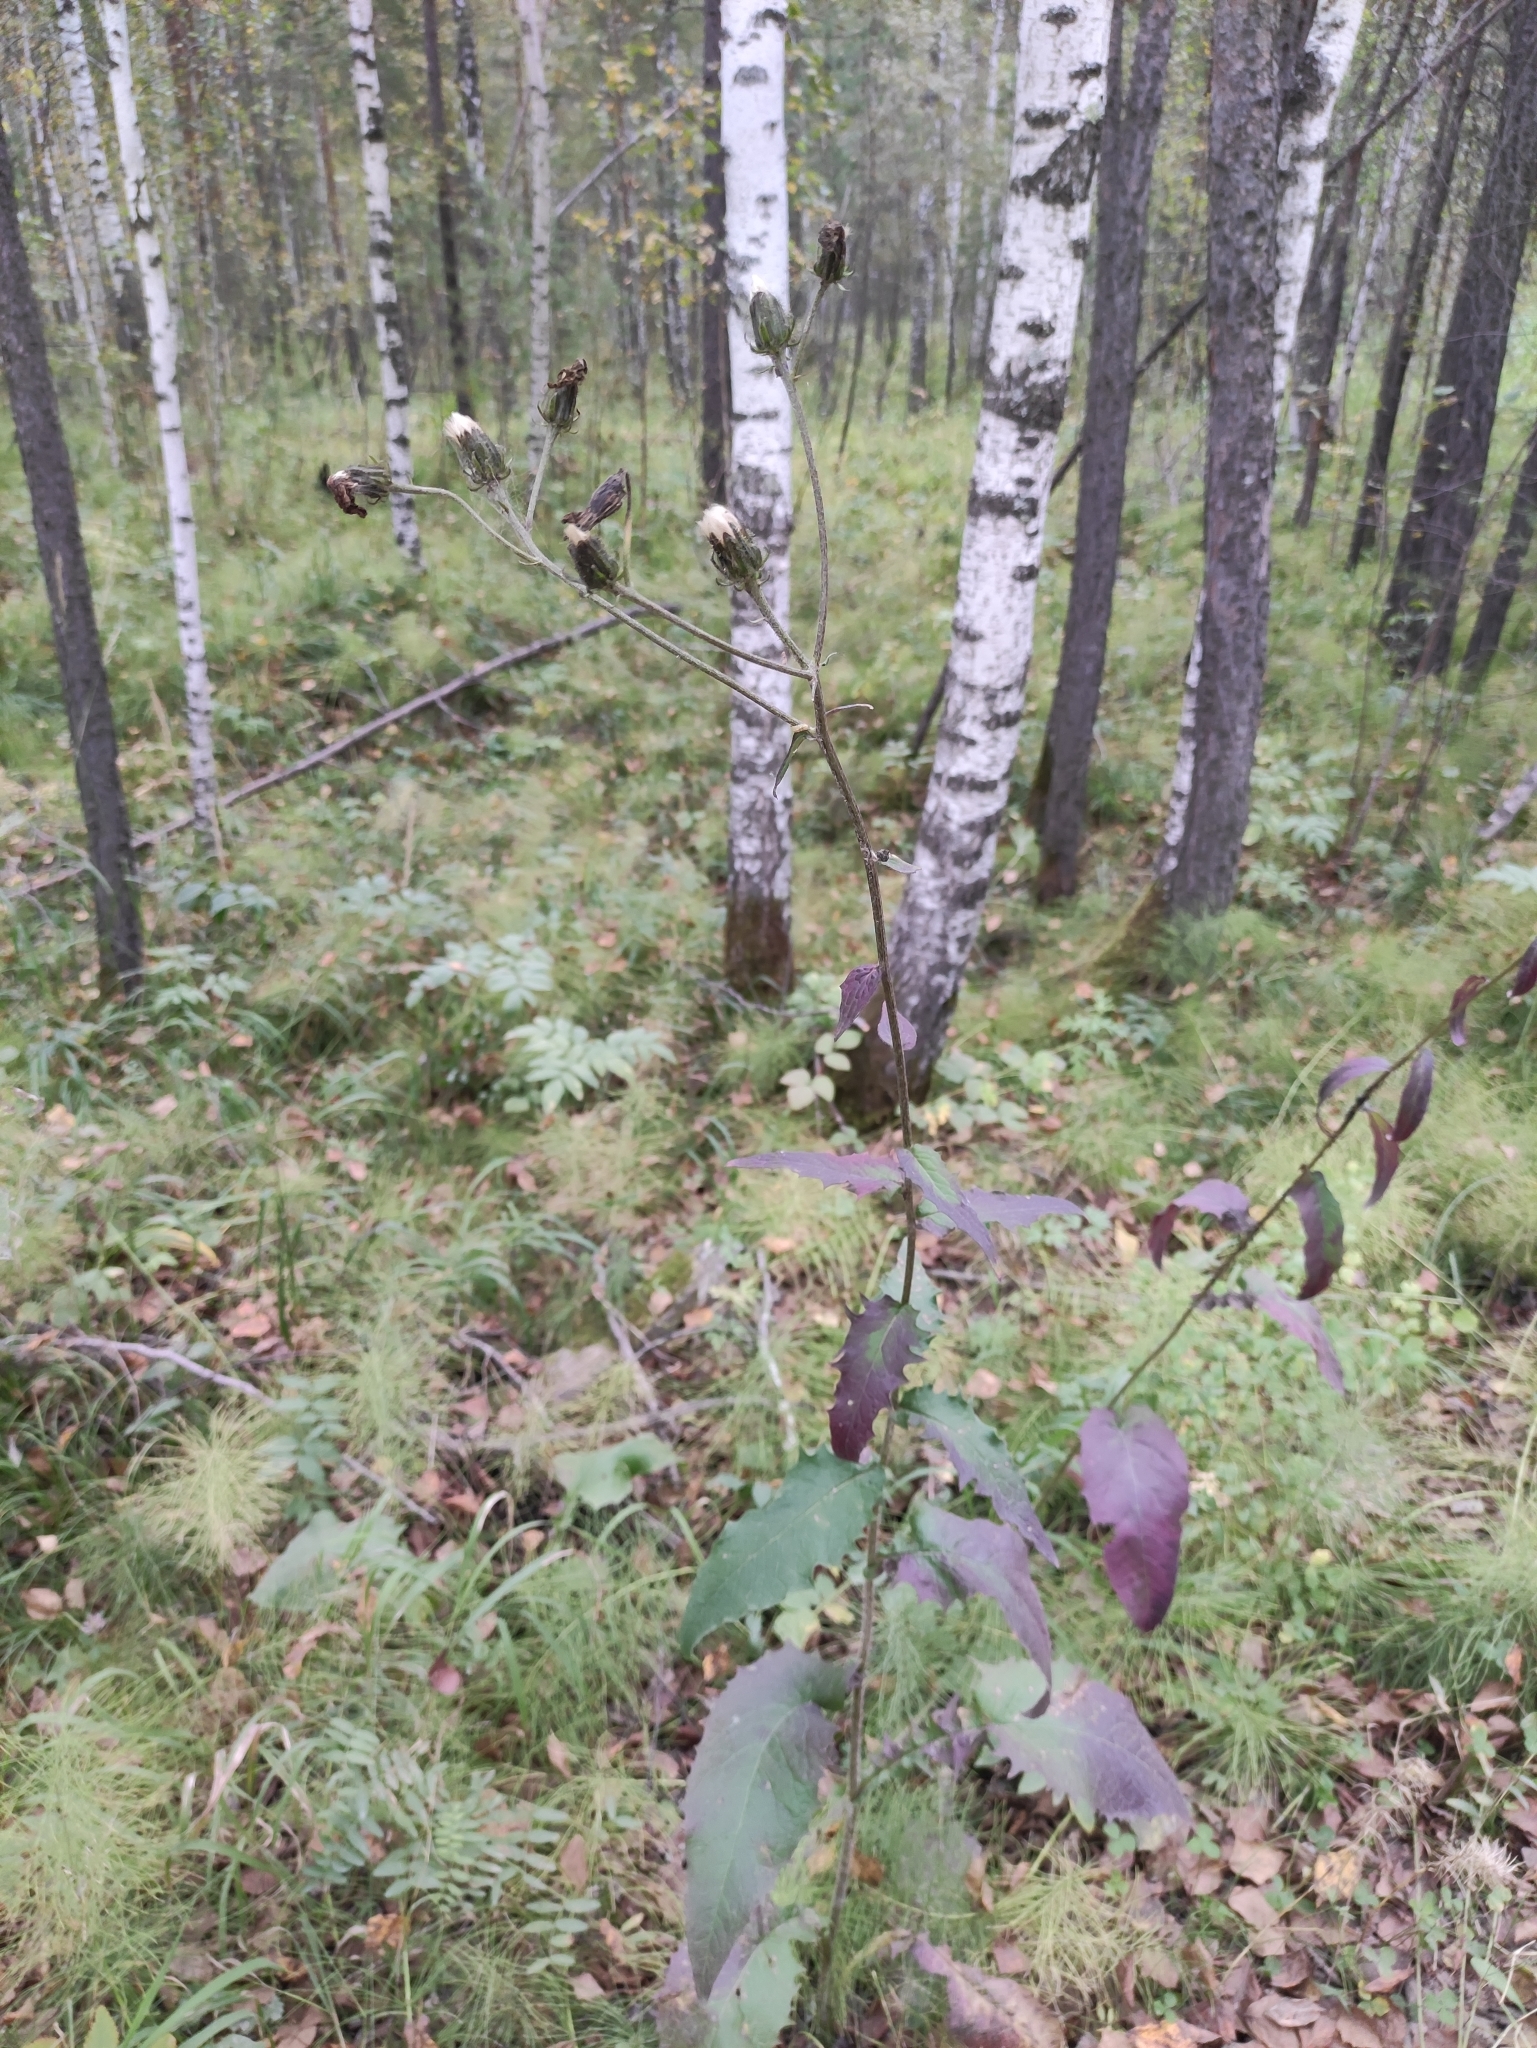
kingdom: Plantae
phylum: Tracheophyta
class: Magnoliopsida
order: Asterales
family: Asteraceae
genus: Crepis
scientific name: Crepis sibirica
